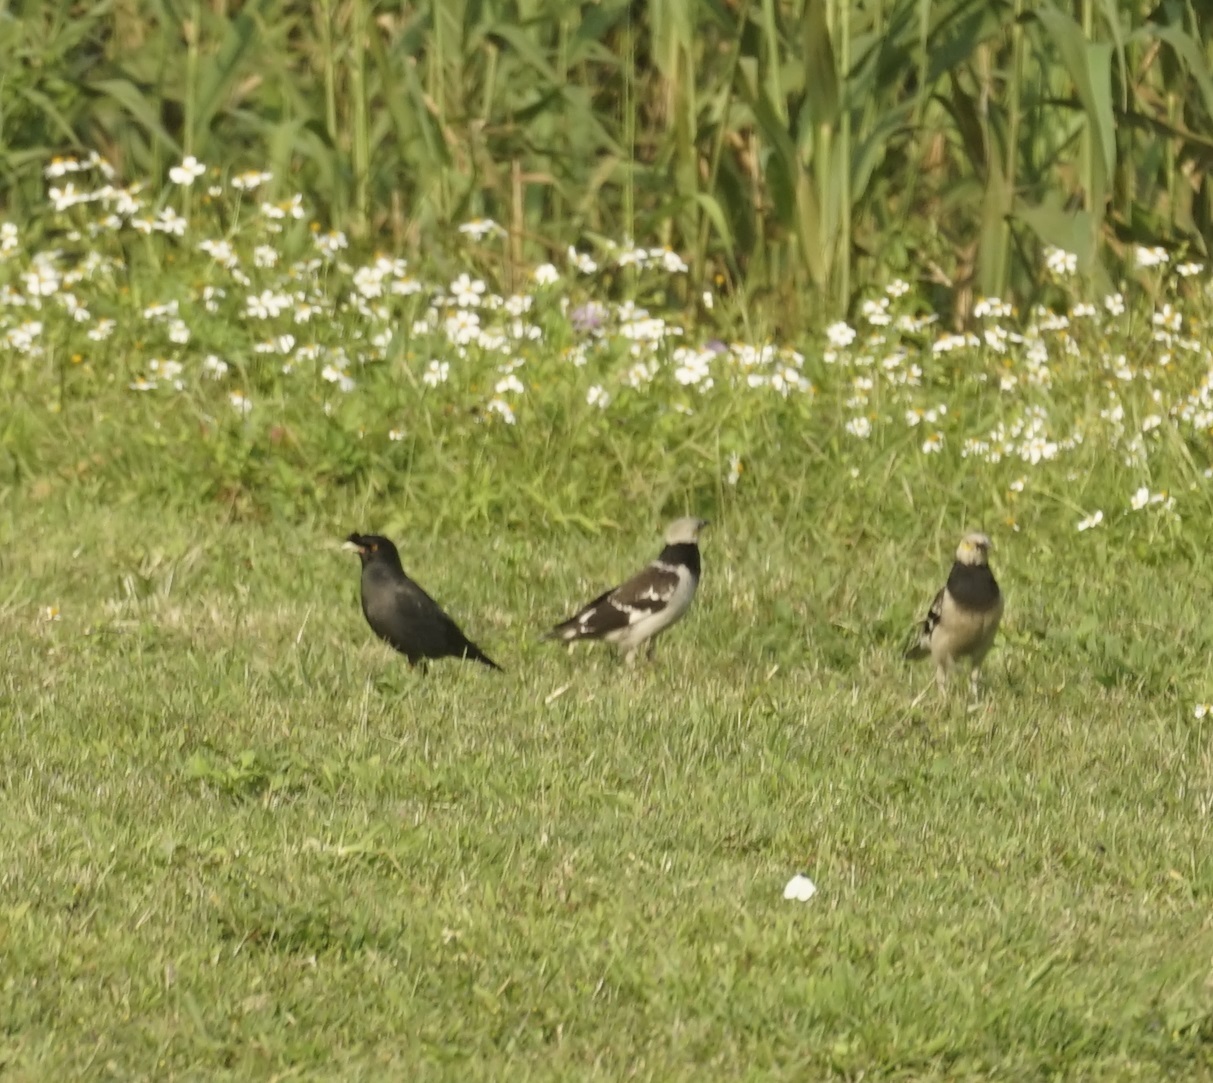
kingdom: Animalia
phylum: Chordata
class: Aves
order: Passeriformes
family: Sturnidae
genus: Gracupica
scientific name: Gracupica nigricollis
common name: Black-collared starling
